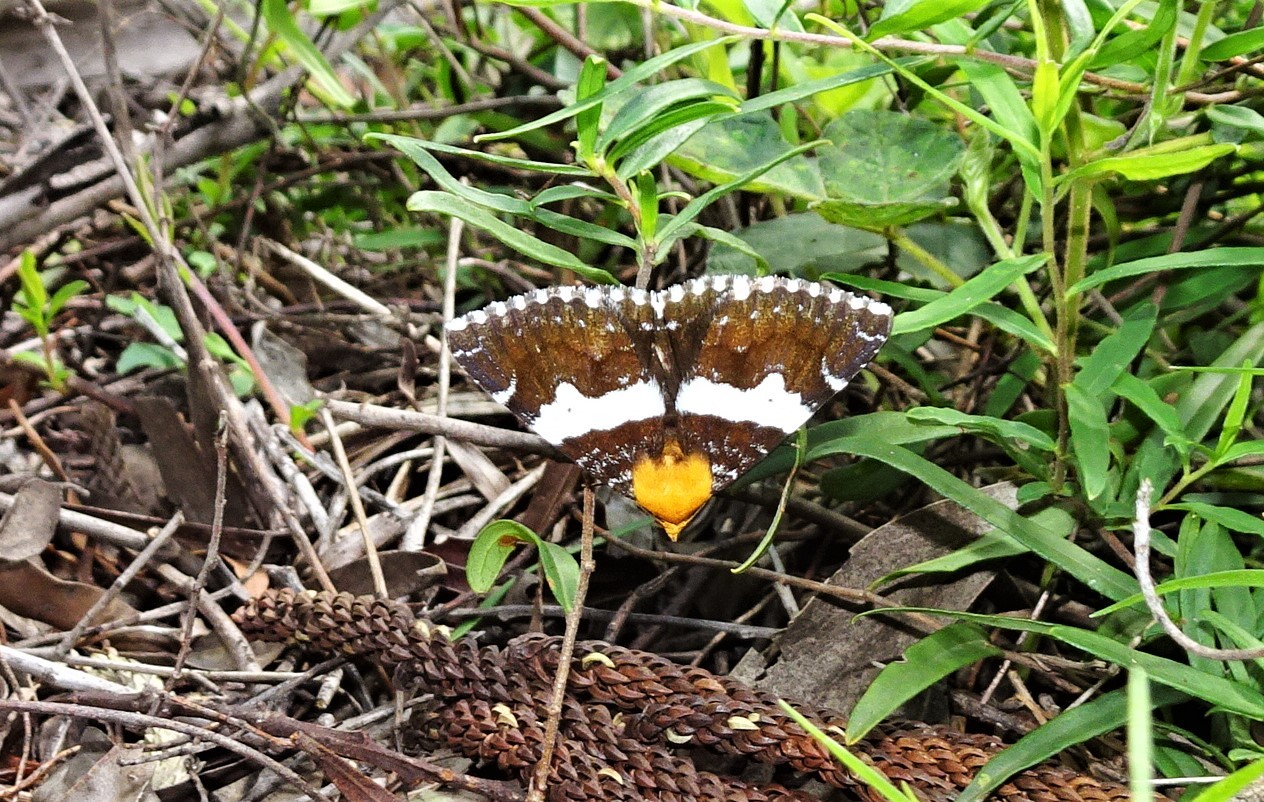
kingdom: Animalia
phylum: Arthropoda
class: Insecta
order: Lepidoptera
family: Erebidae
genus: Buzara
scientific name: Buzara latizona
